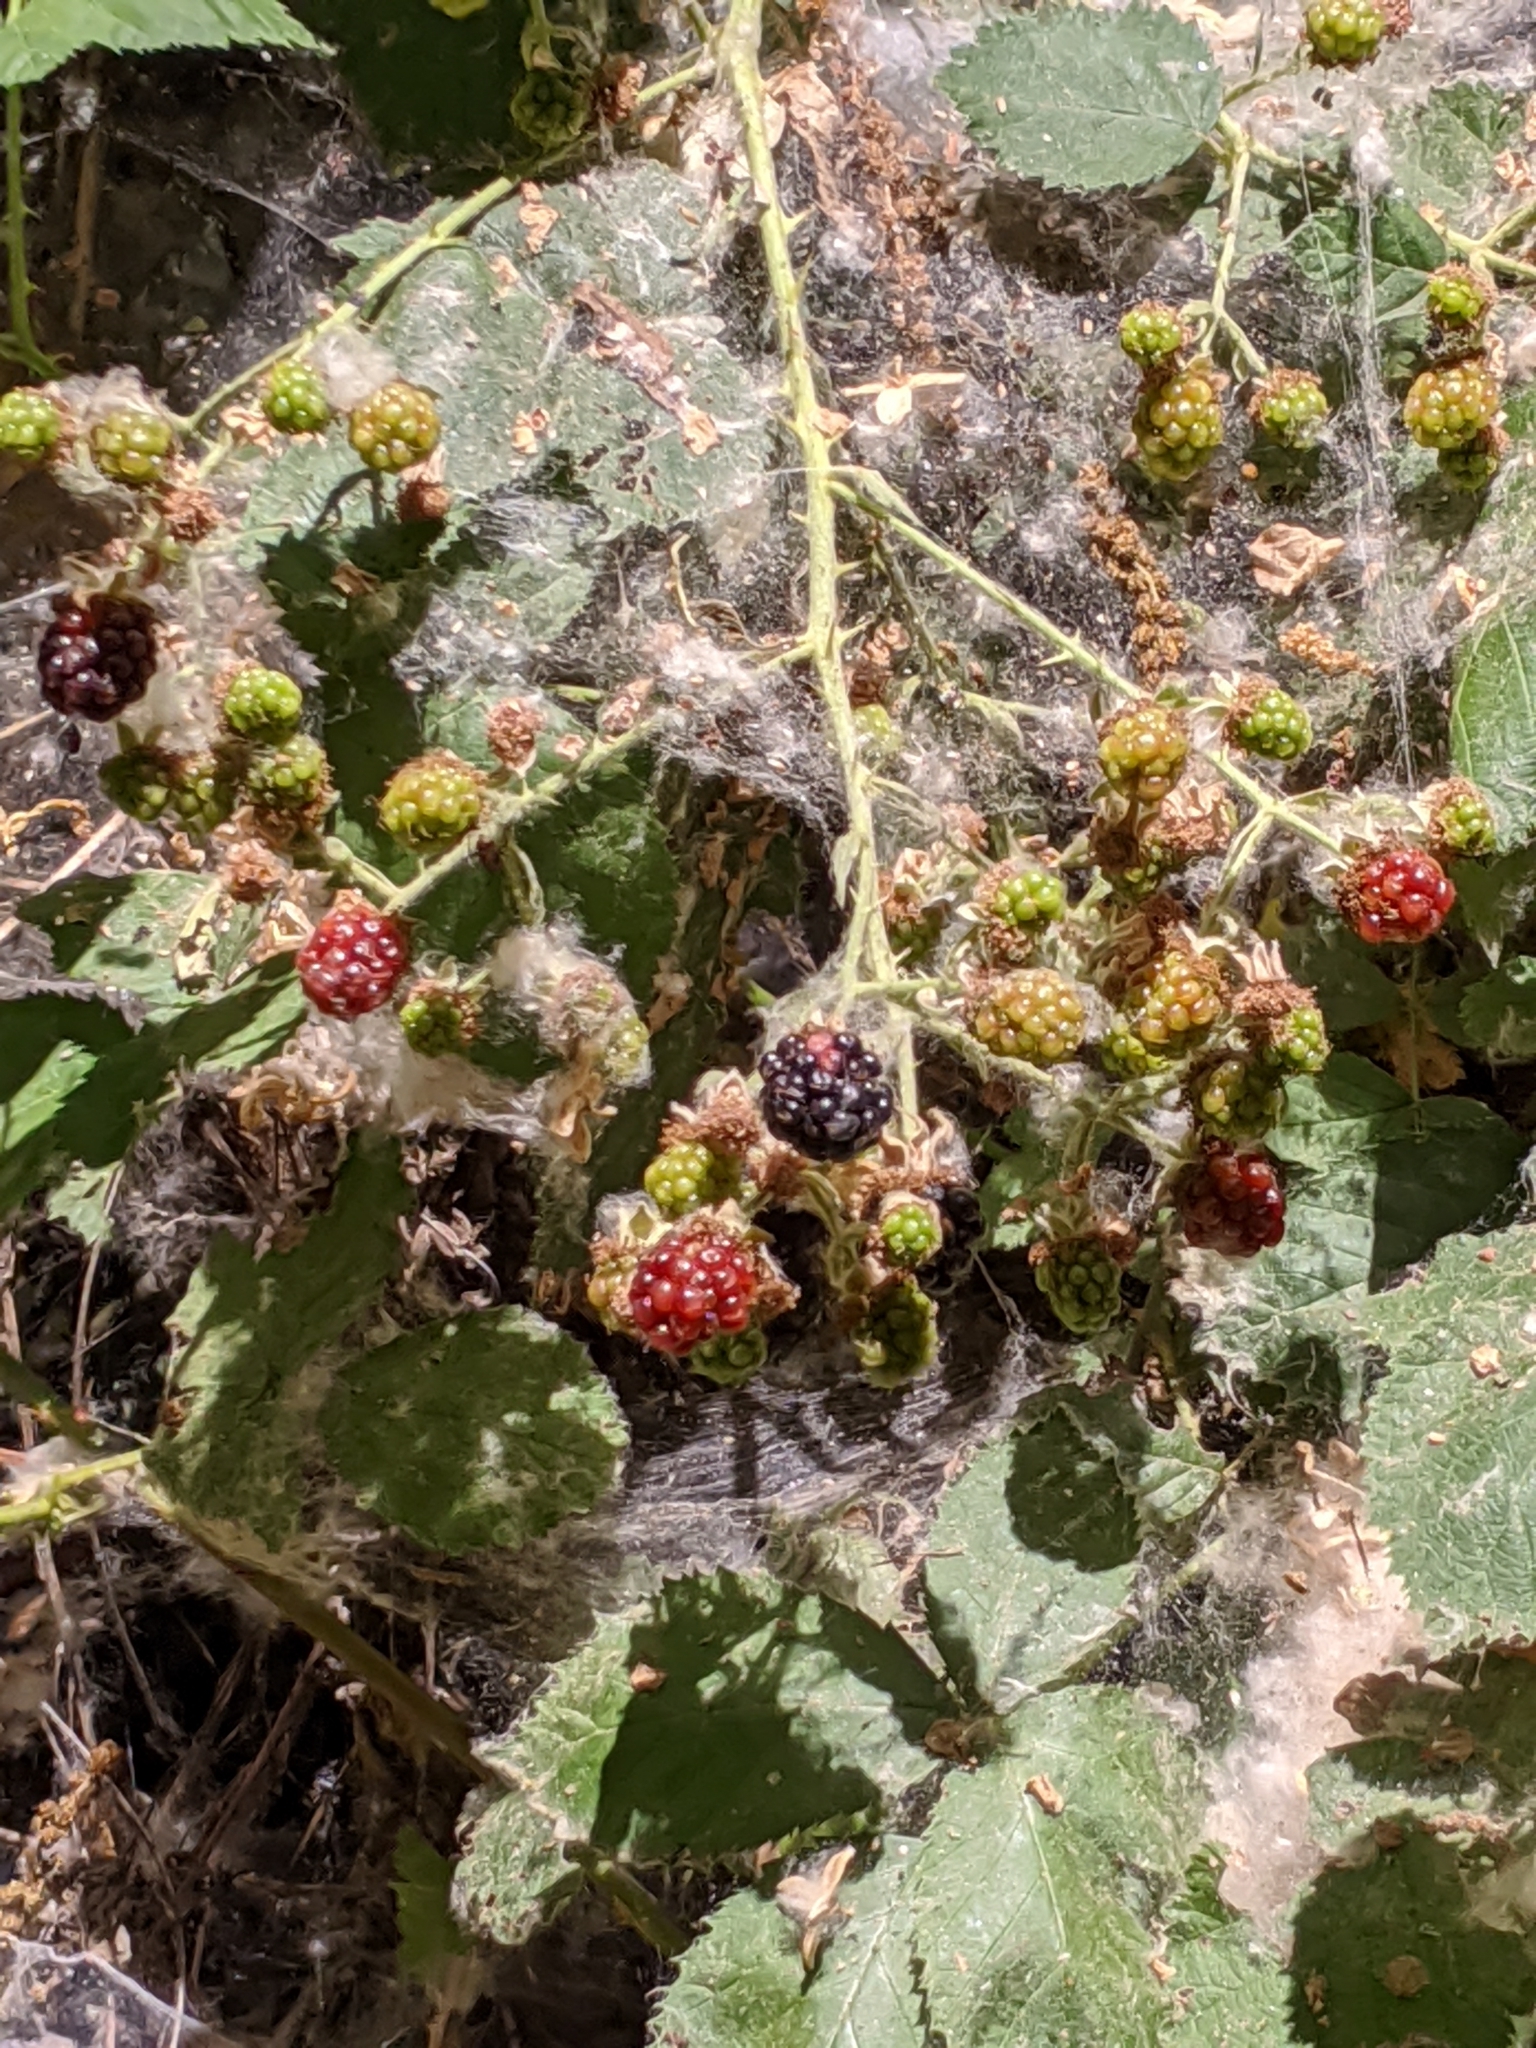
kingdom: Plantae
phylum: Tracheophyta
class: Magnoliopsida
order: Rosales
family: Rosaceae
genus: Rubus
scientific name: Rubus armeniacus
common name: Himalayan blackberry
